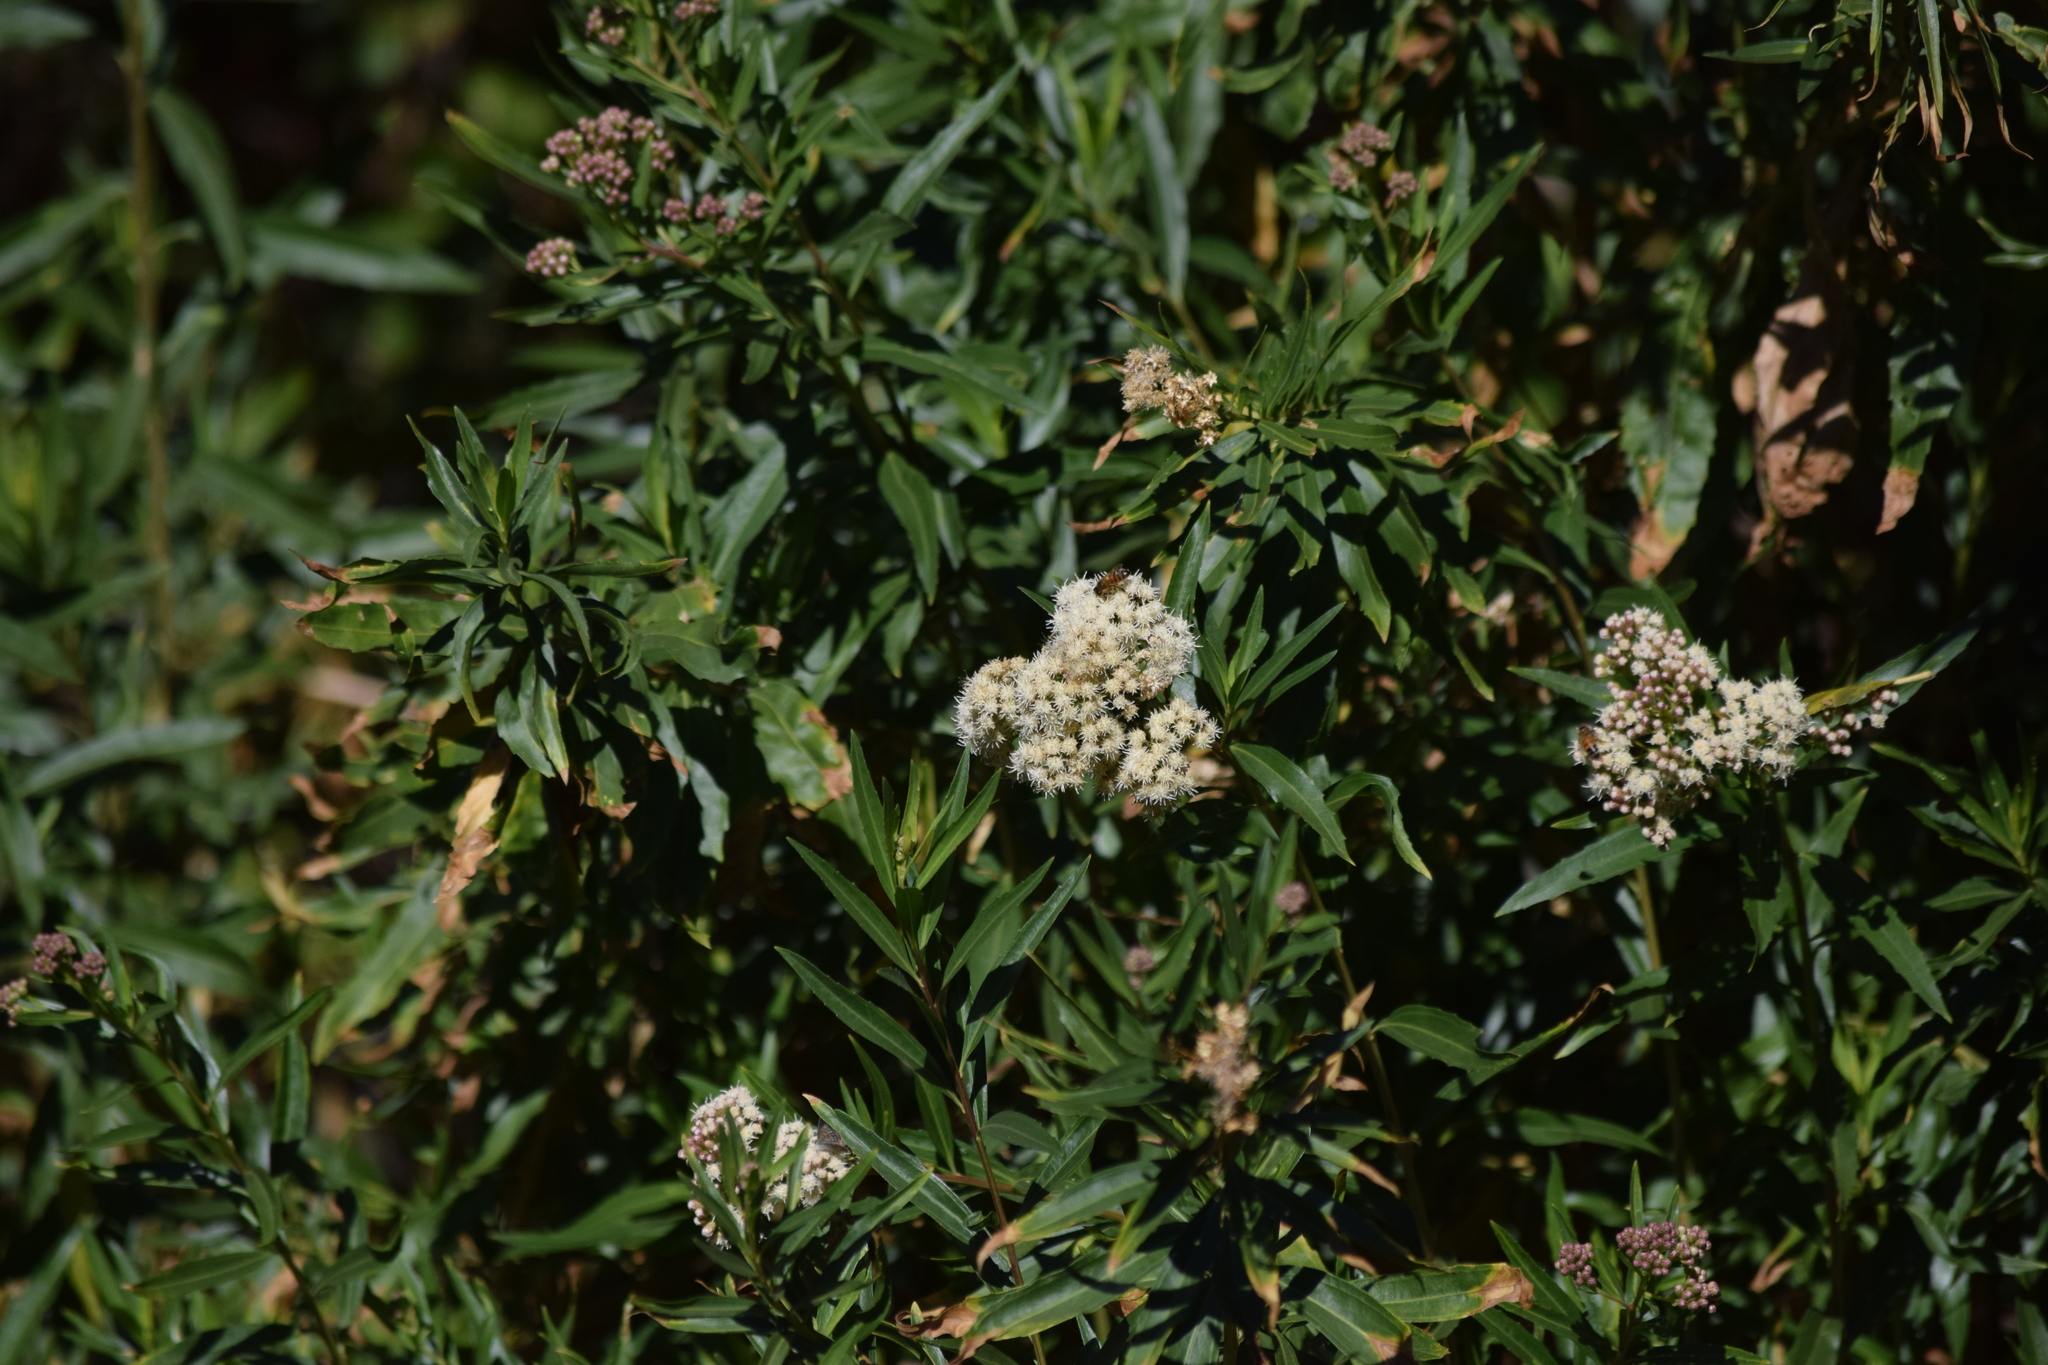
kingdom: Plantae
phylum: Tracheophyta
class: Magnoliopsida
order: Asterales
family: Asteraceae
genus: Baccharis
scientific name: Baccharis salicifolia
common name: Sticky baccharis
